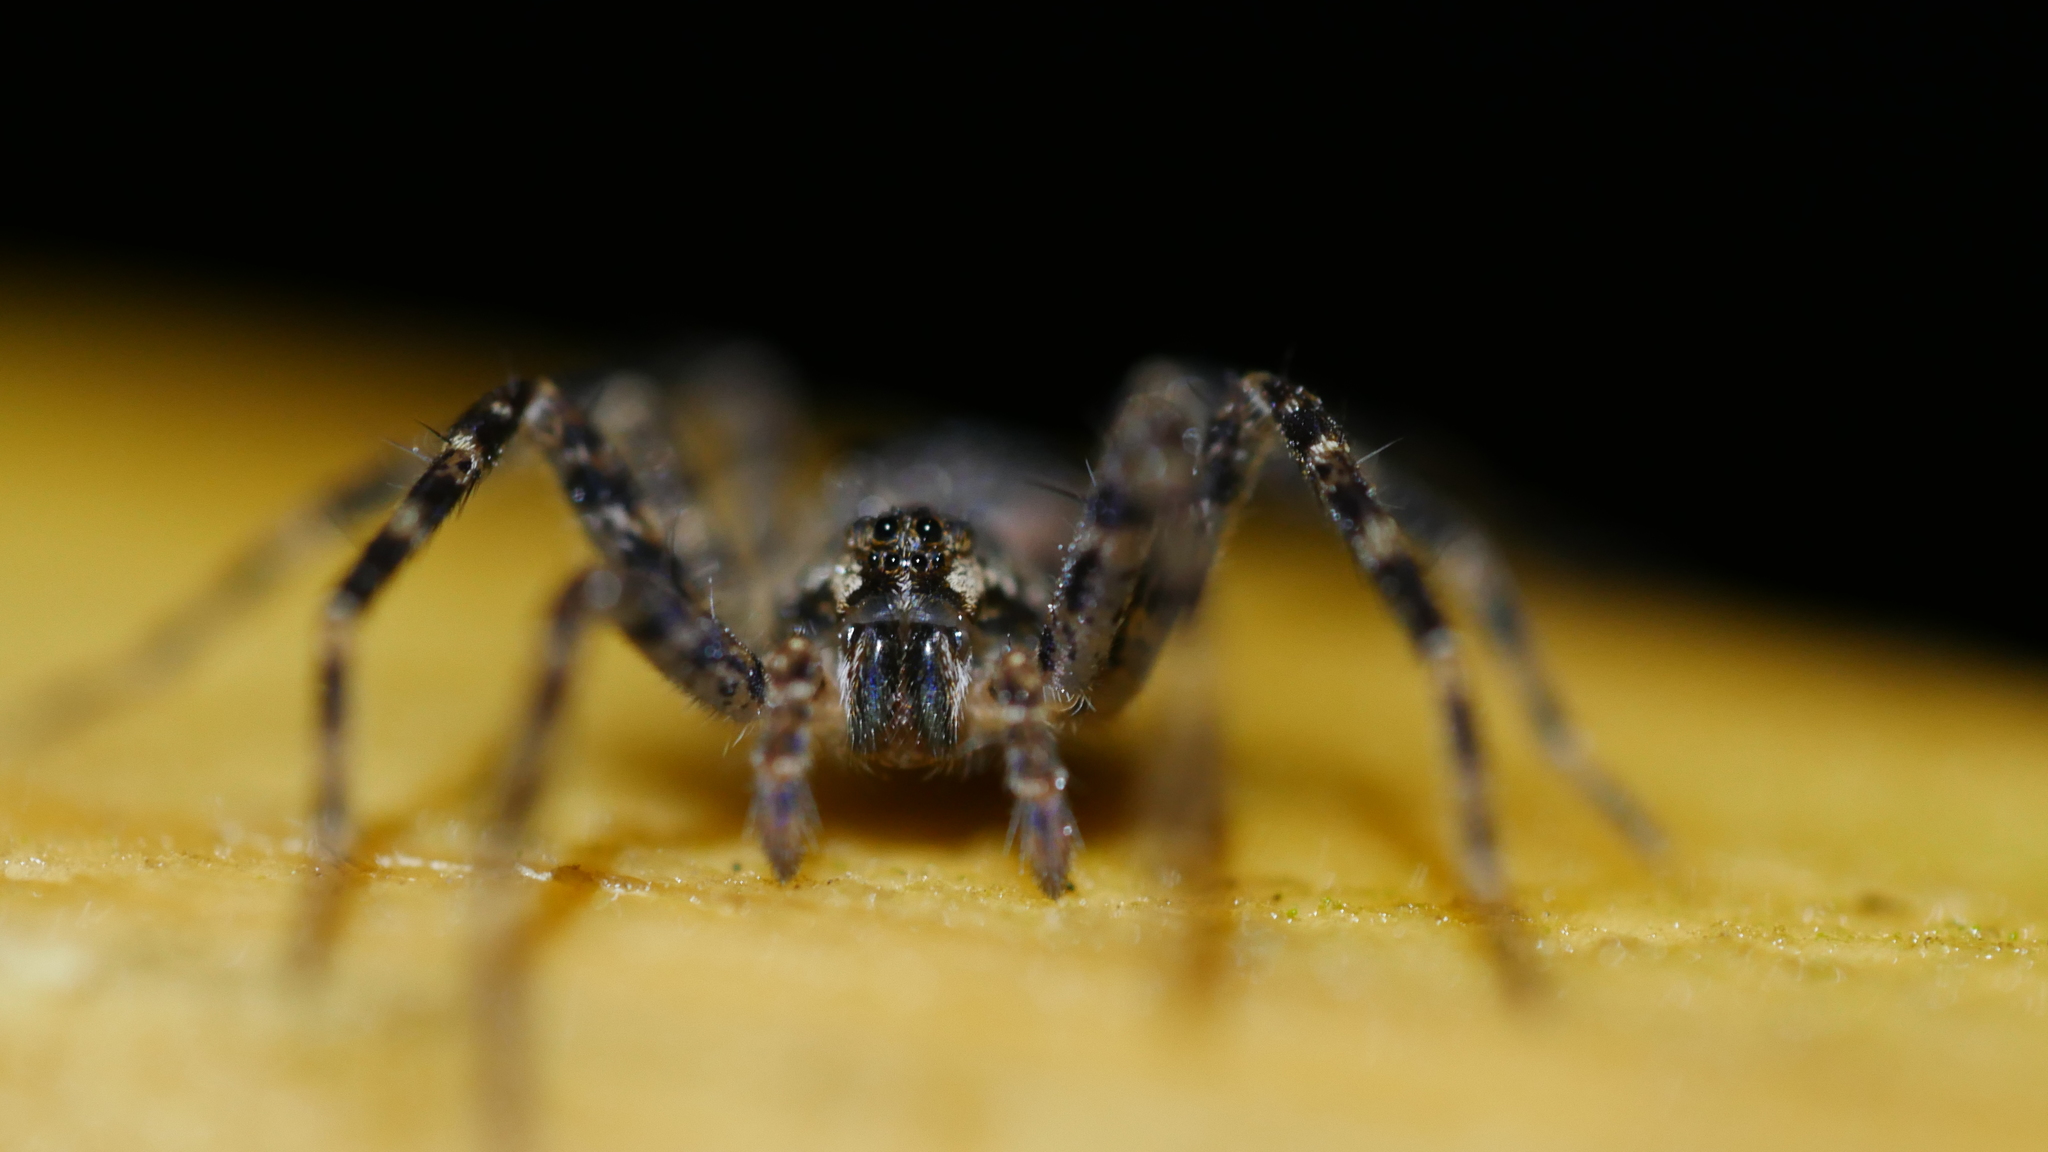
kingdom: Animalia
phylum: Arthropoda
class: Arachnida
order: Araneae
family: Pisauridae
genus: Dolomedes
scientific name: Dolomedes tenebrosus
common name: Dark fishing spider
